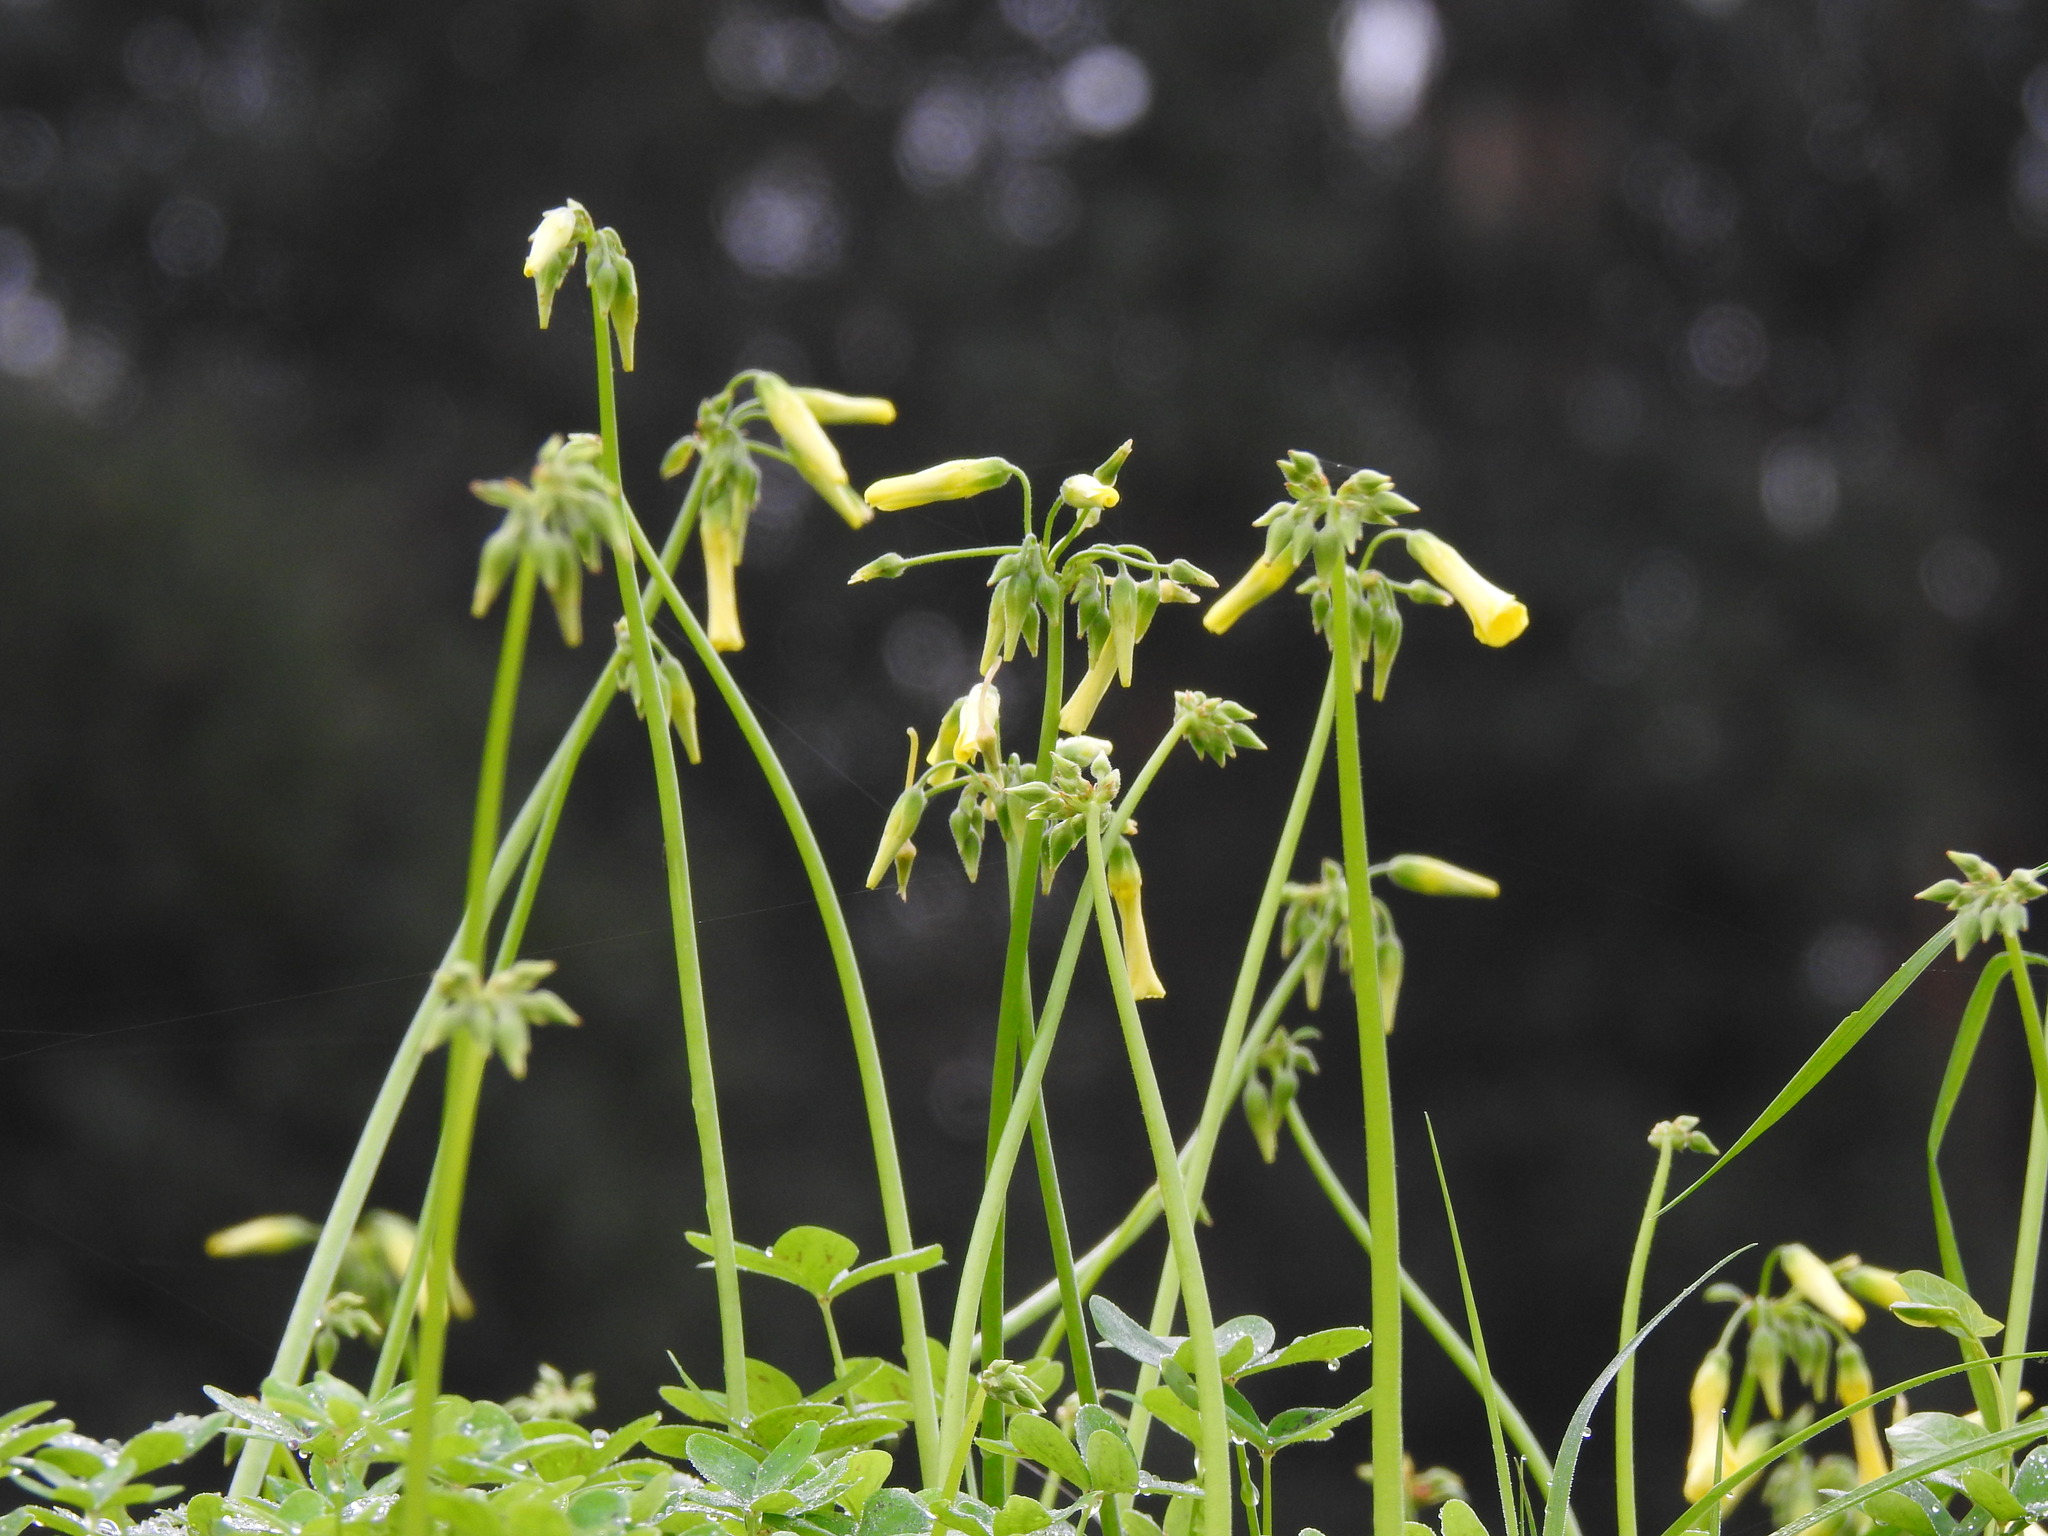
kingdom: Plantae
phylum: Tracheophyta
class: Magnoliopsida
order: Oxalidales
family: Oxalidaceae
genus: Oxalis
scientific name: Oxalis pes-caprae
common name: Bermuda-buttercup
